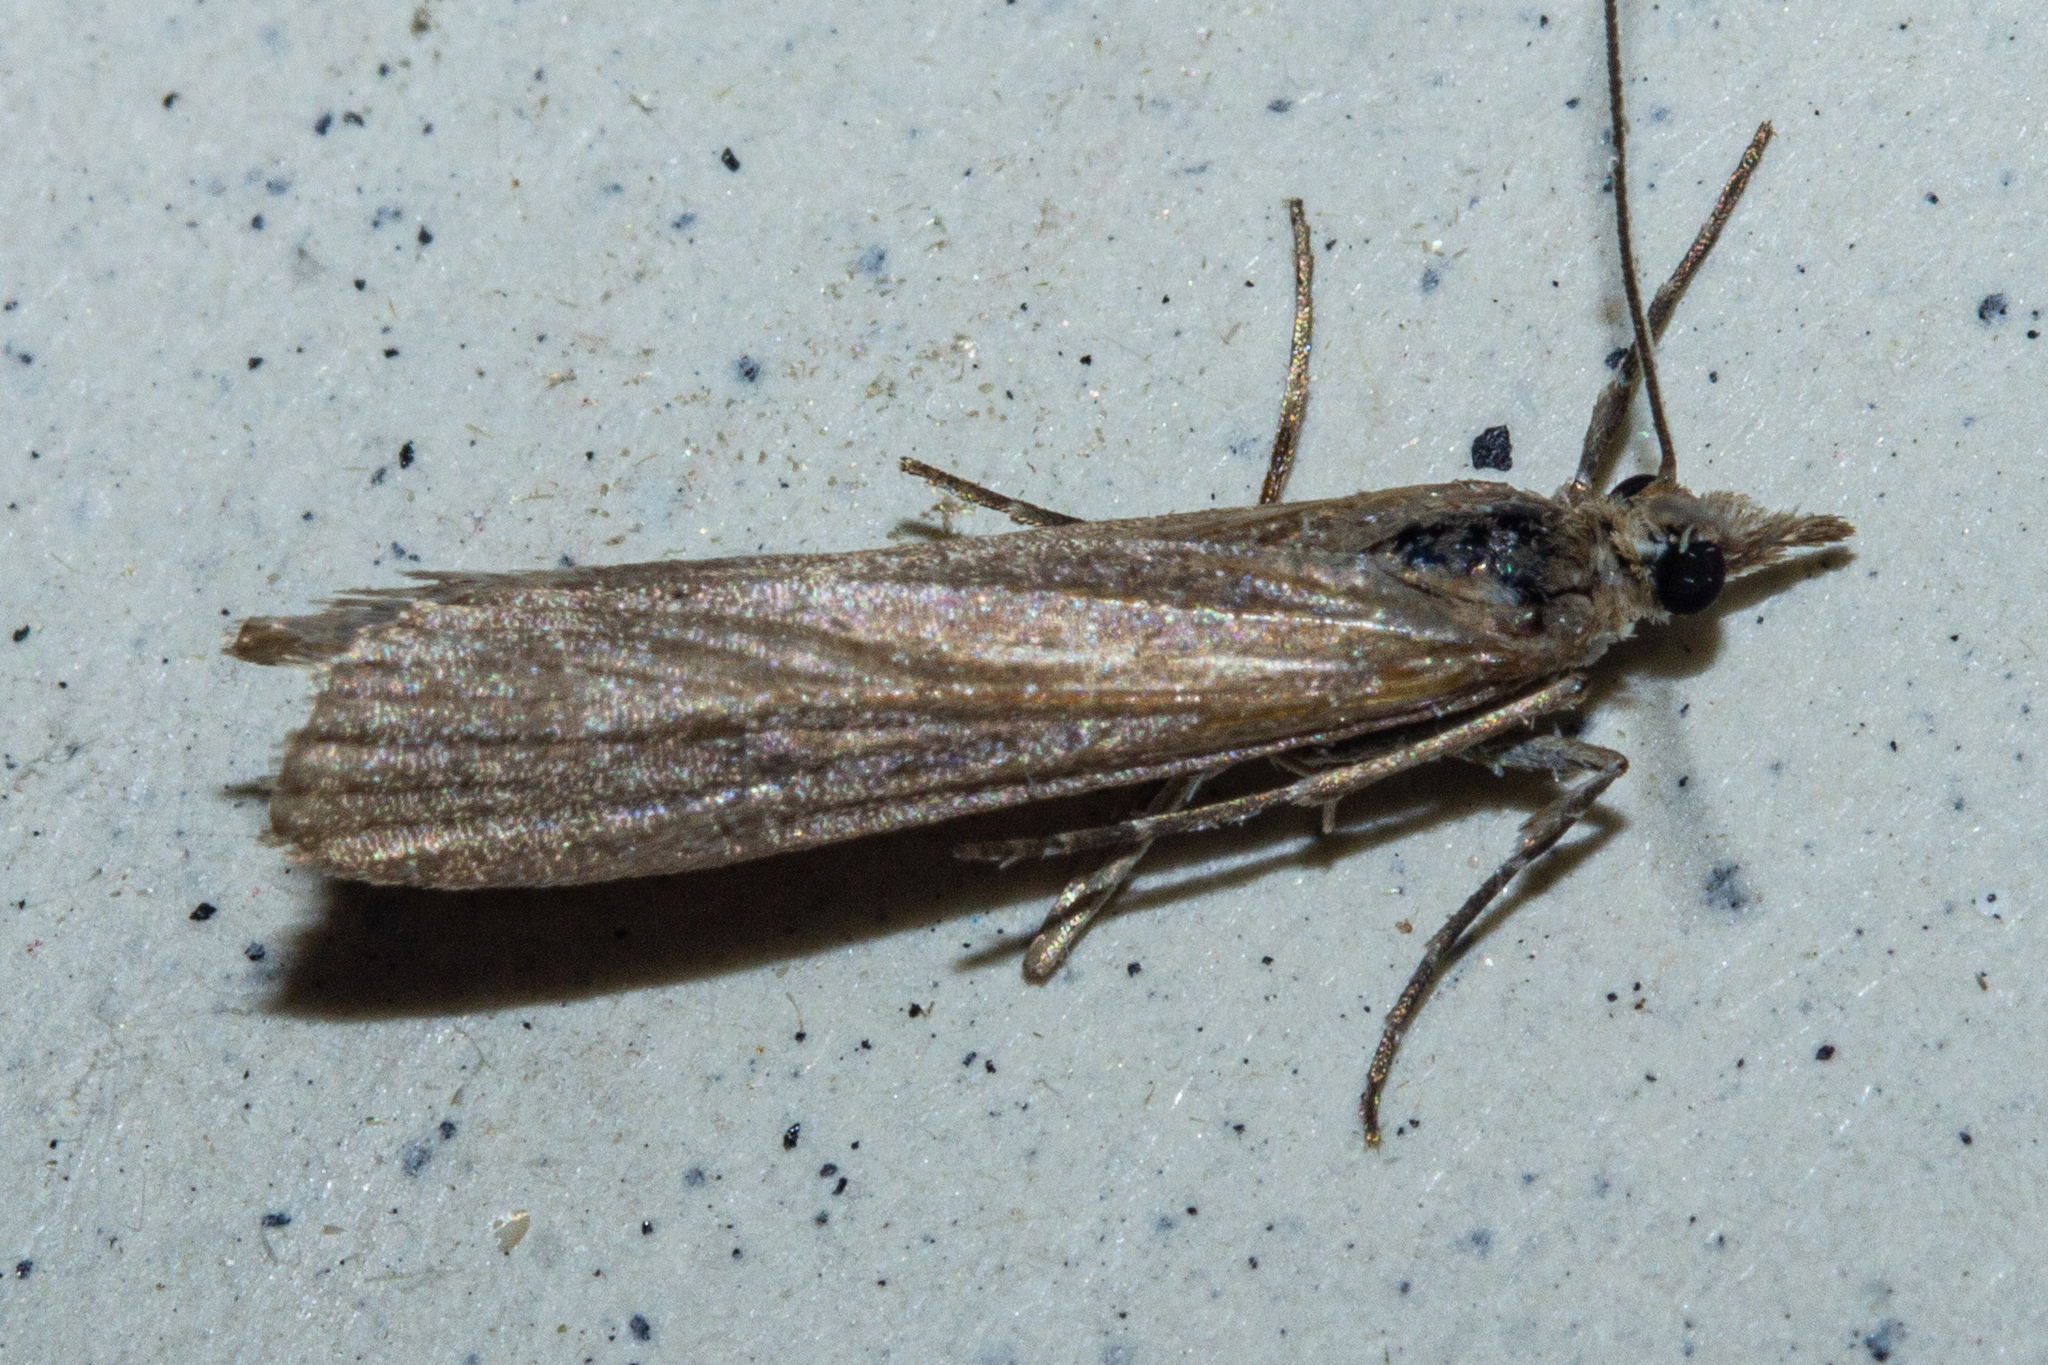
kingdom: Animalia
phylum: Arthropoda
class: Insecta
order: Lepidoptera
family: Crambidae
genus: Eudonia
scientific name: Eudonia leptalea
